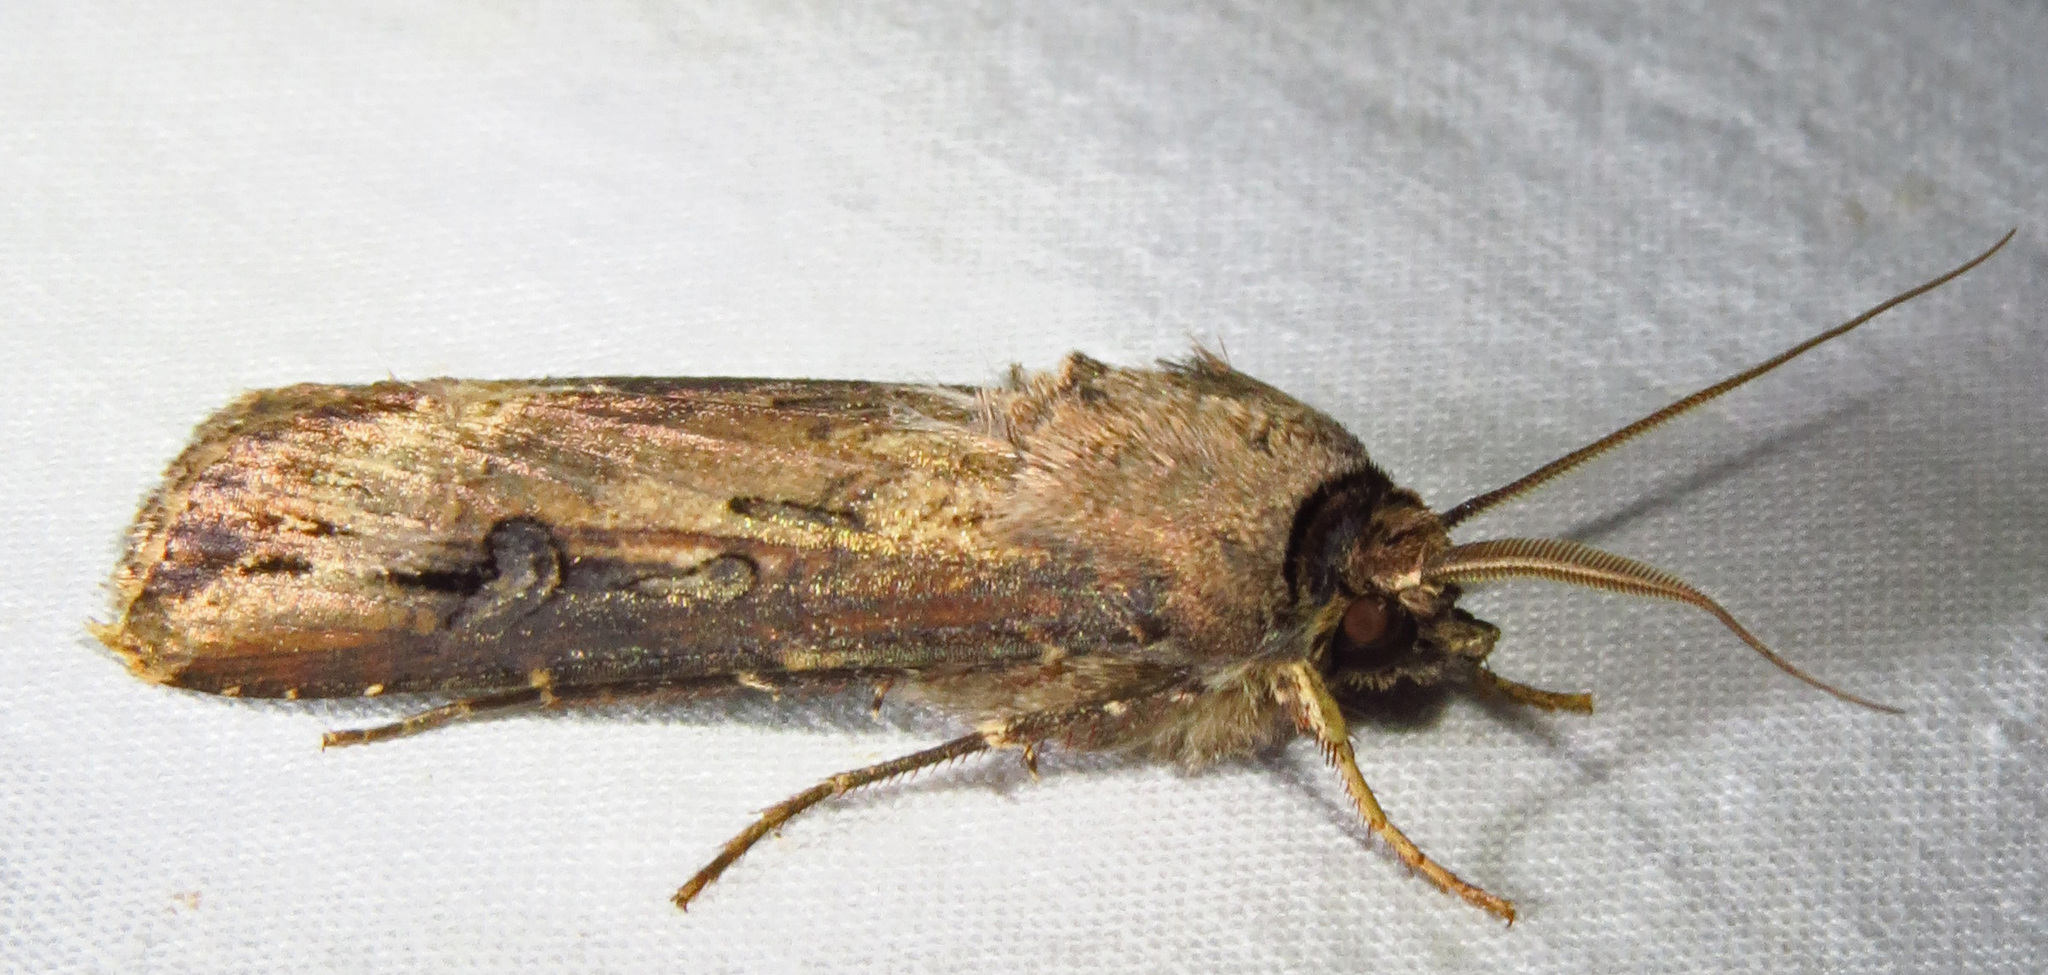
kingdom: Animalia
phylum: Arthropoda
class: Insecta
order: Lepidoptera
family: Noctuidae
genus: Agrotis
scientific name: Agrotis ipsilon
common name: Dark sword-grass
